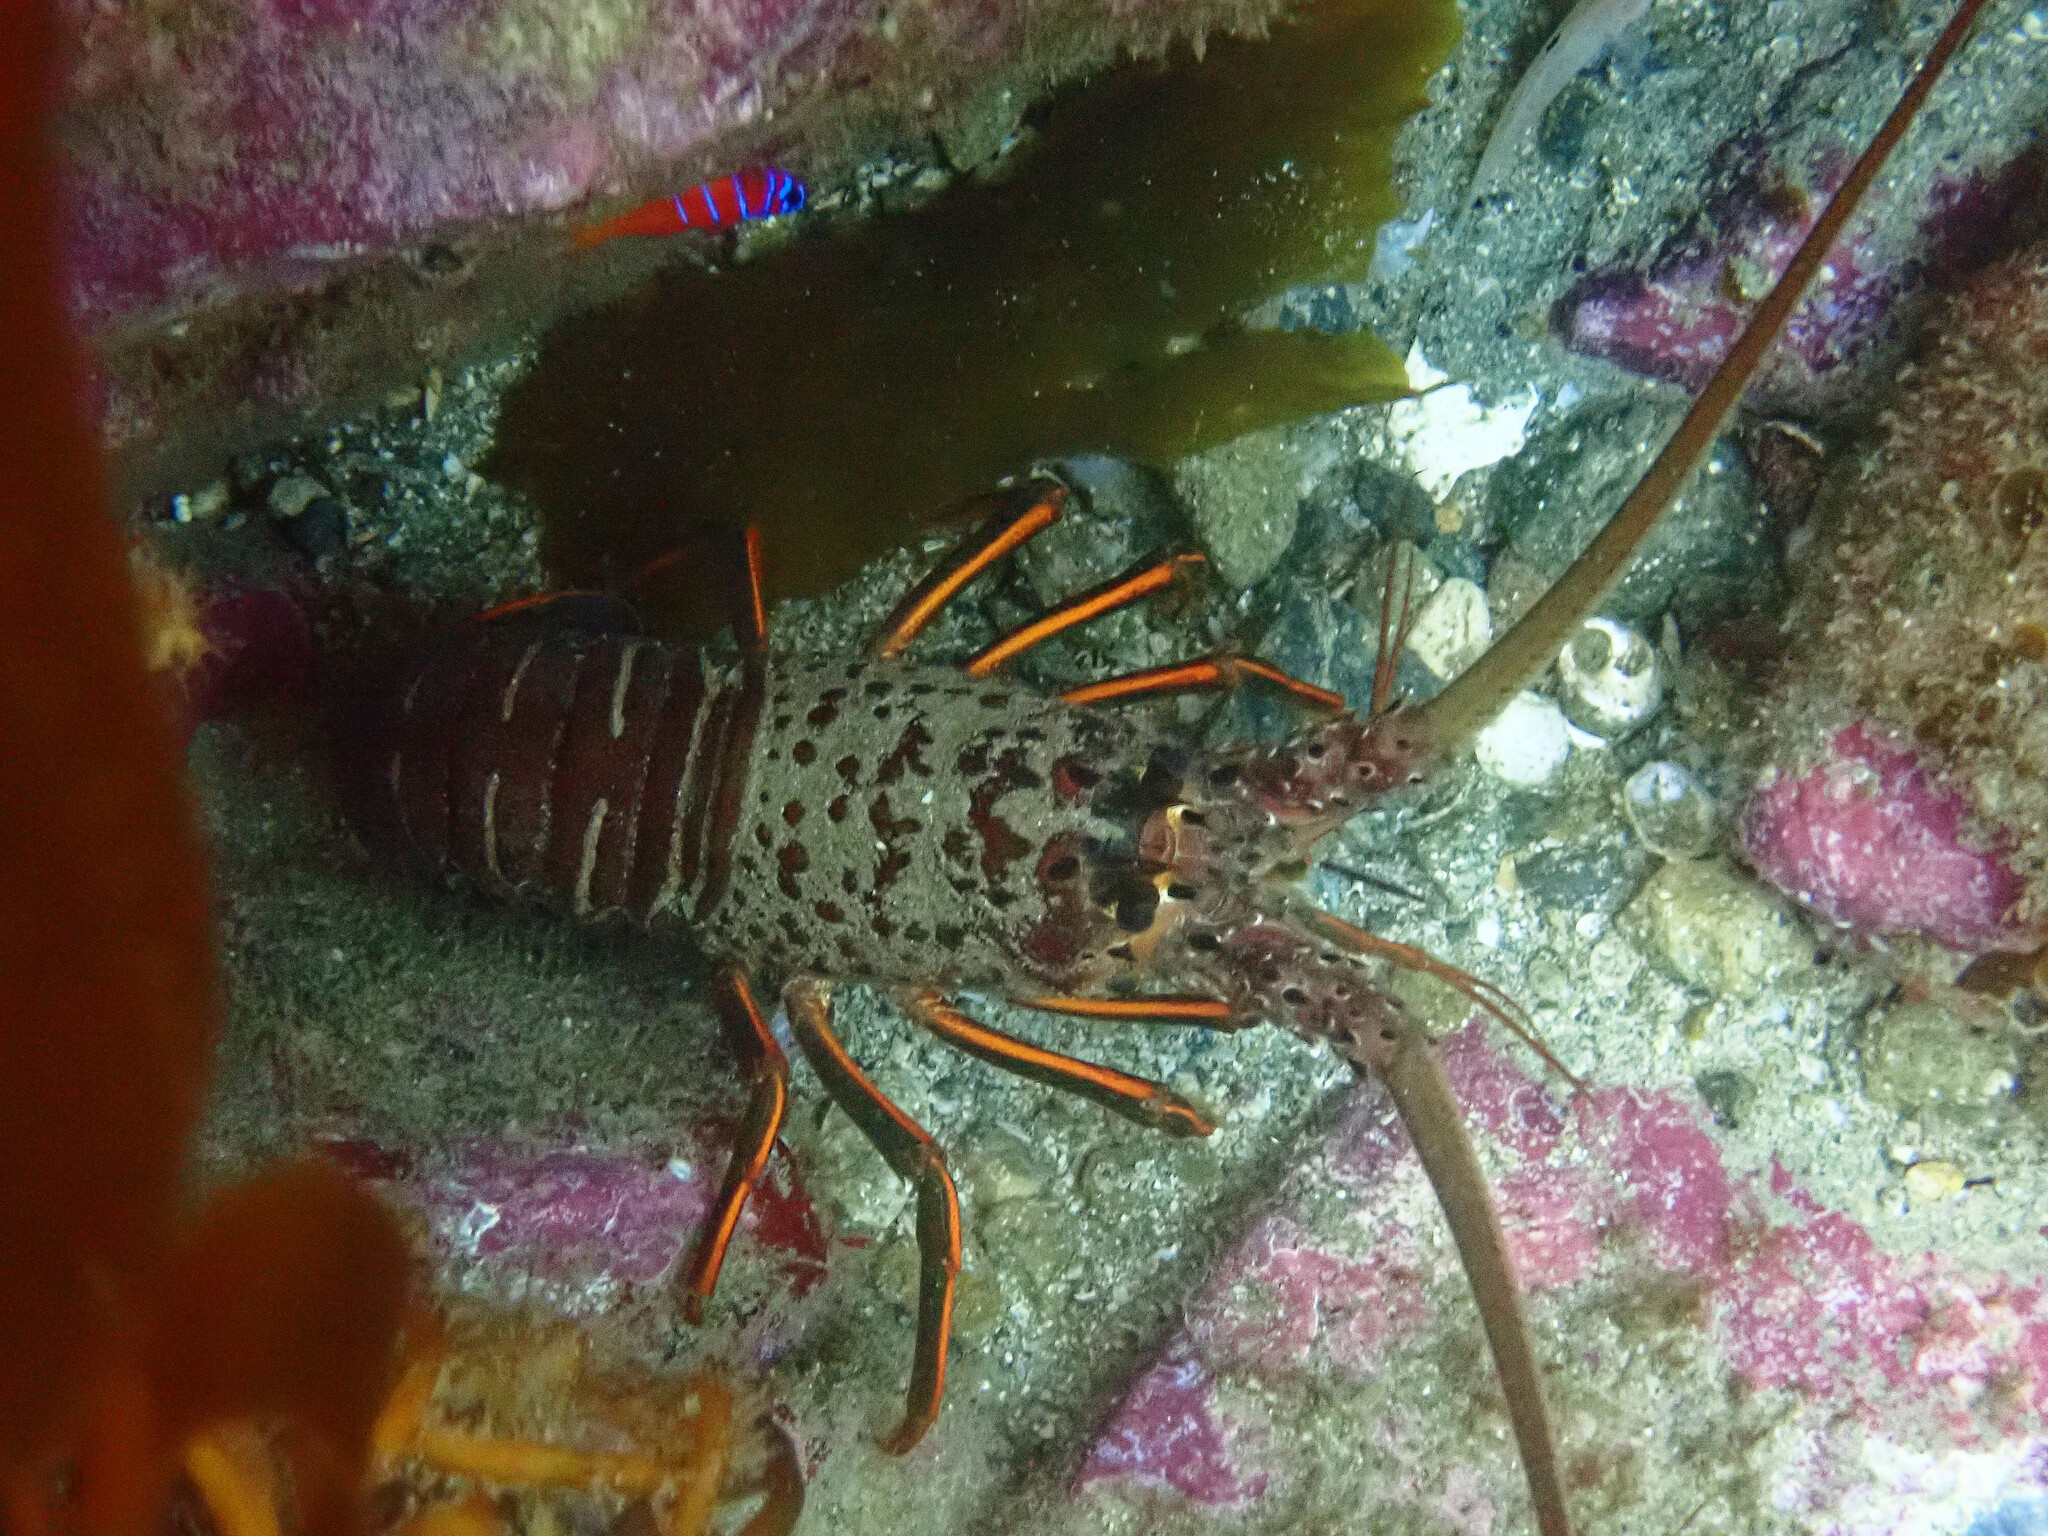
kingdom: Animalia
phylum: Arthropoda
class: Malacostraca
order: Decapoda
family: Palinuridae
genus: Panulirus
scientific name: Panulirus interruptus
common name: California spiny lobster
